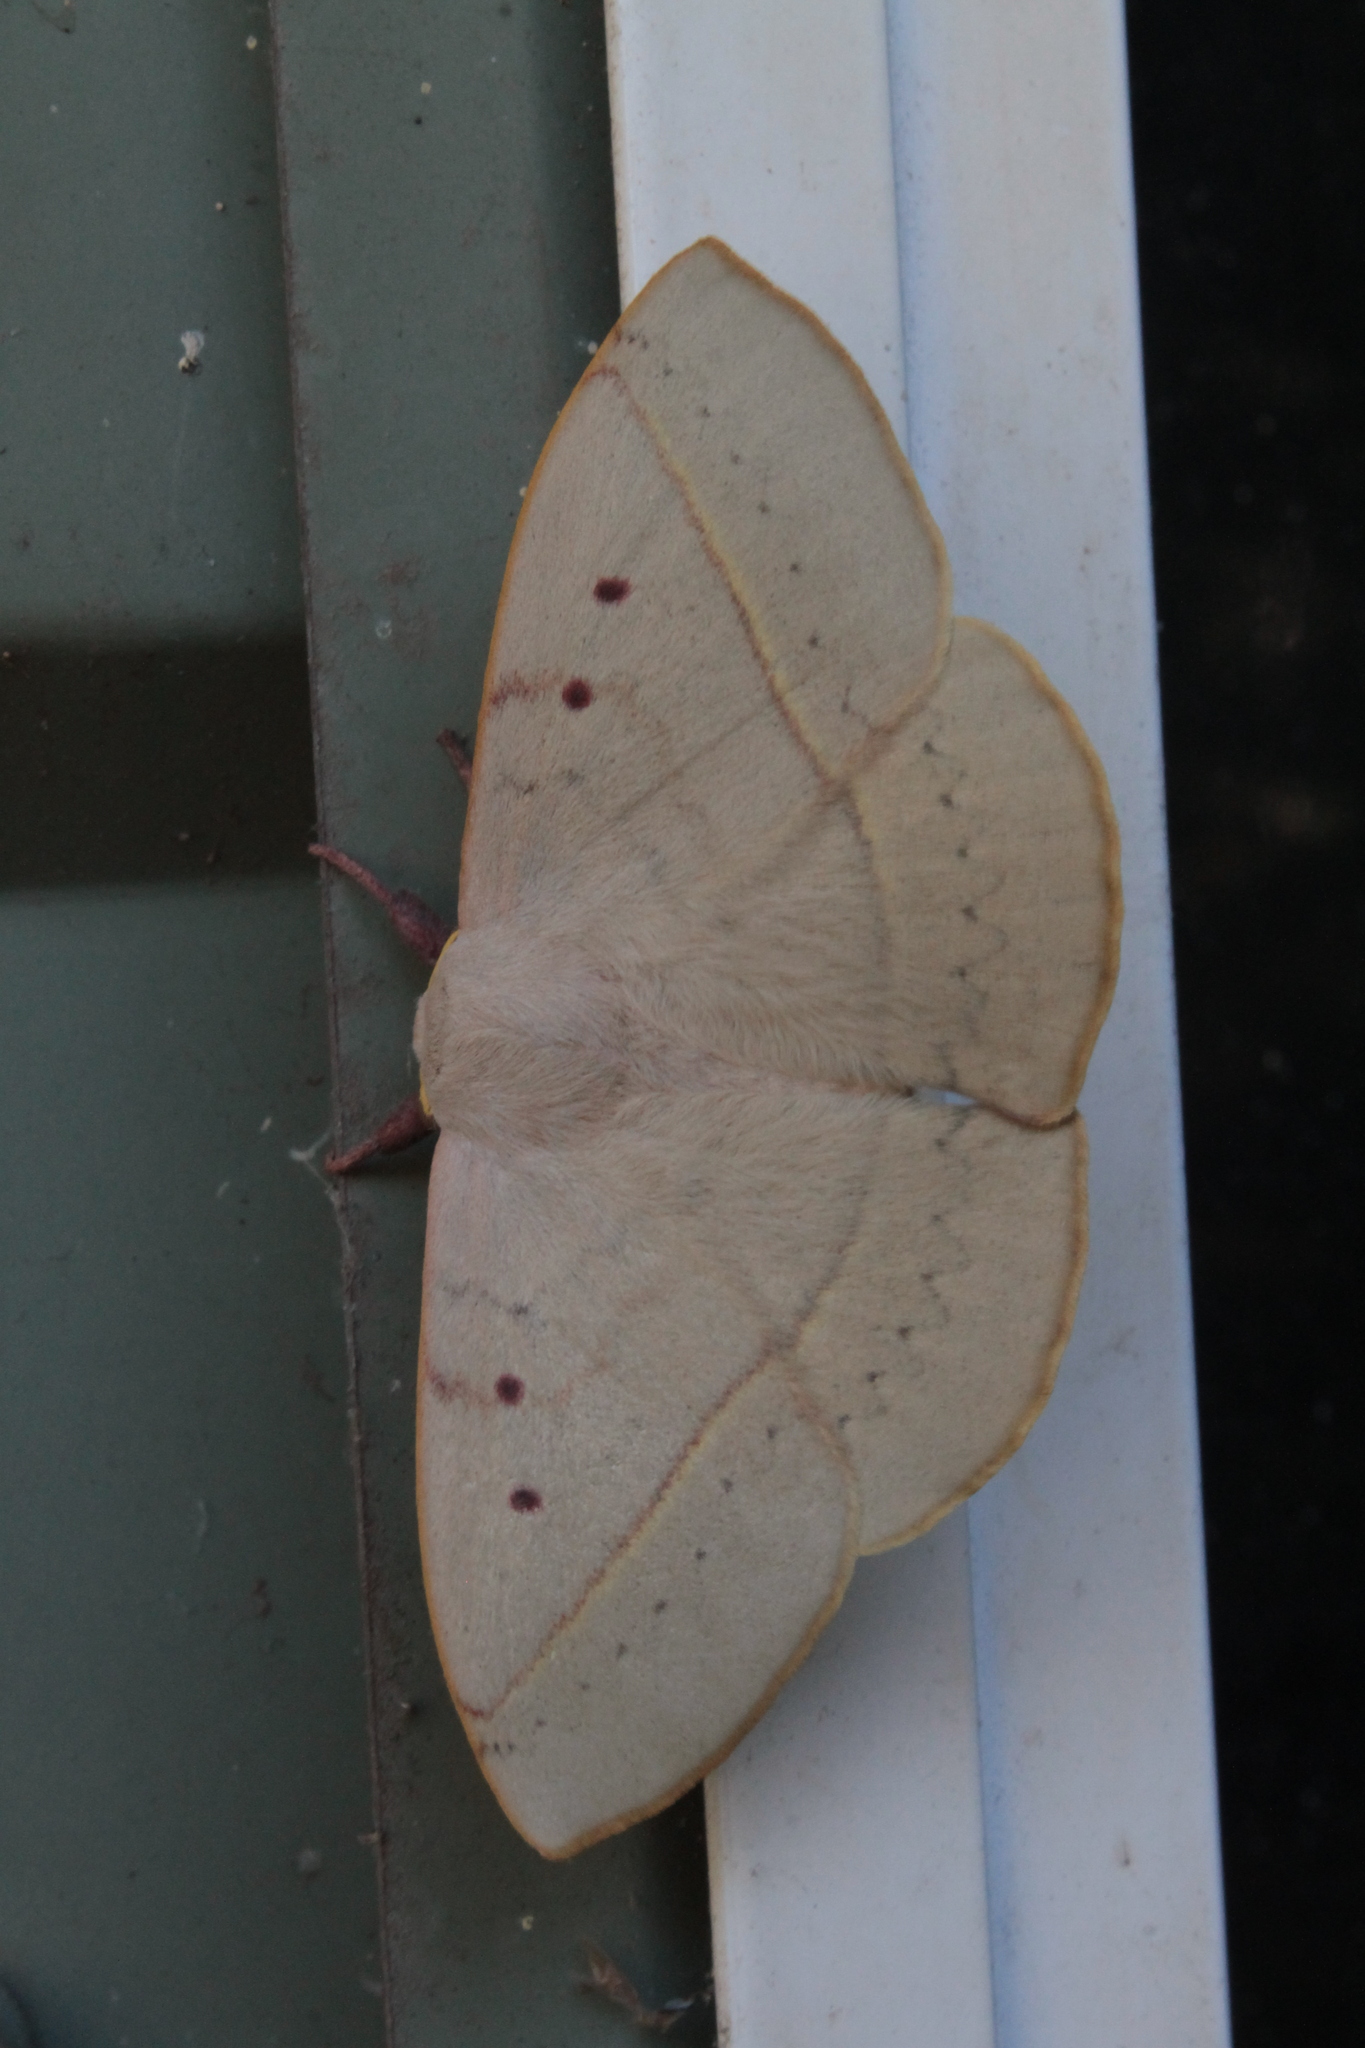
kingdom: Animalia
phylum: Arthropoda
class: Insecta
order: Lepidoptera
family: Anthelidae
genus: Anthela
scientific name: Anthela canescens
